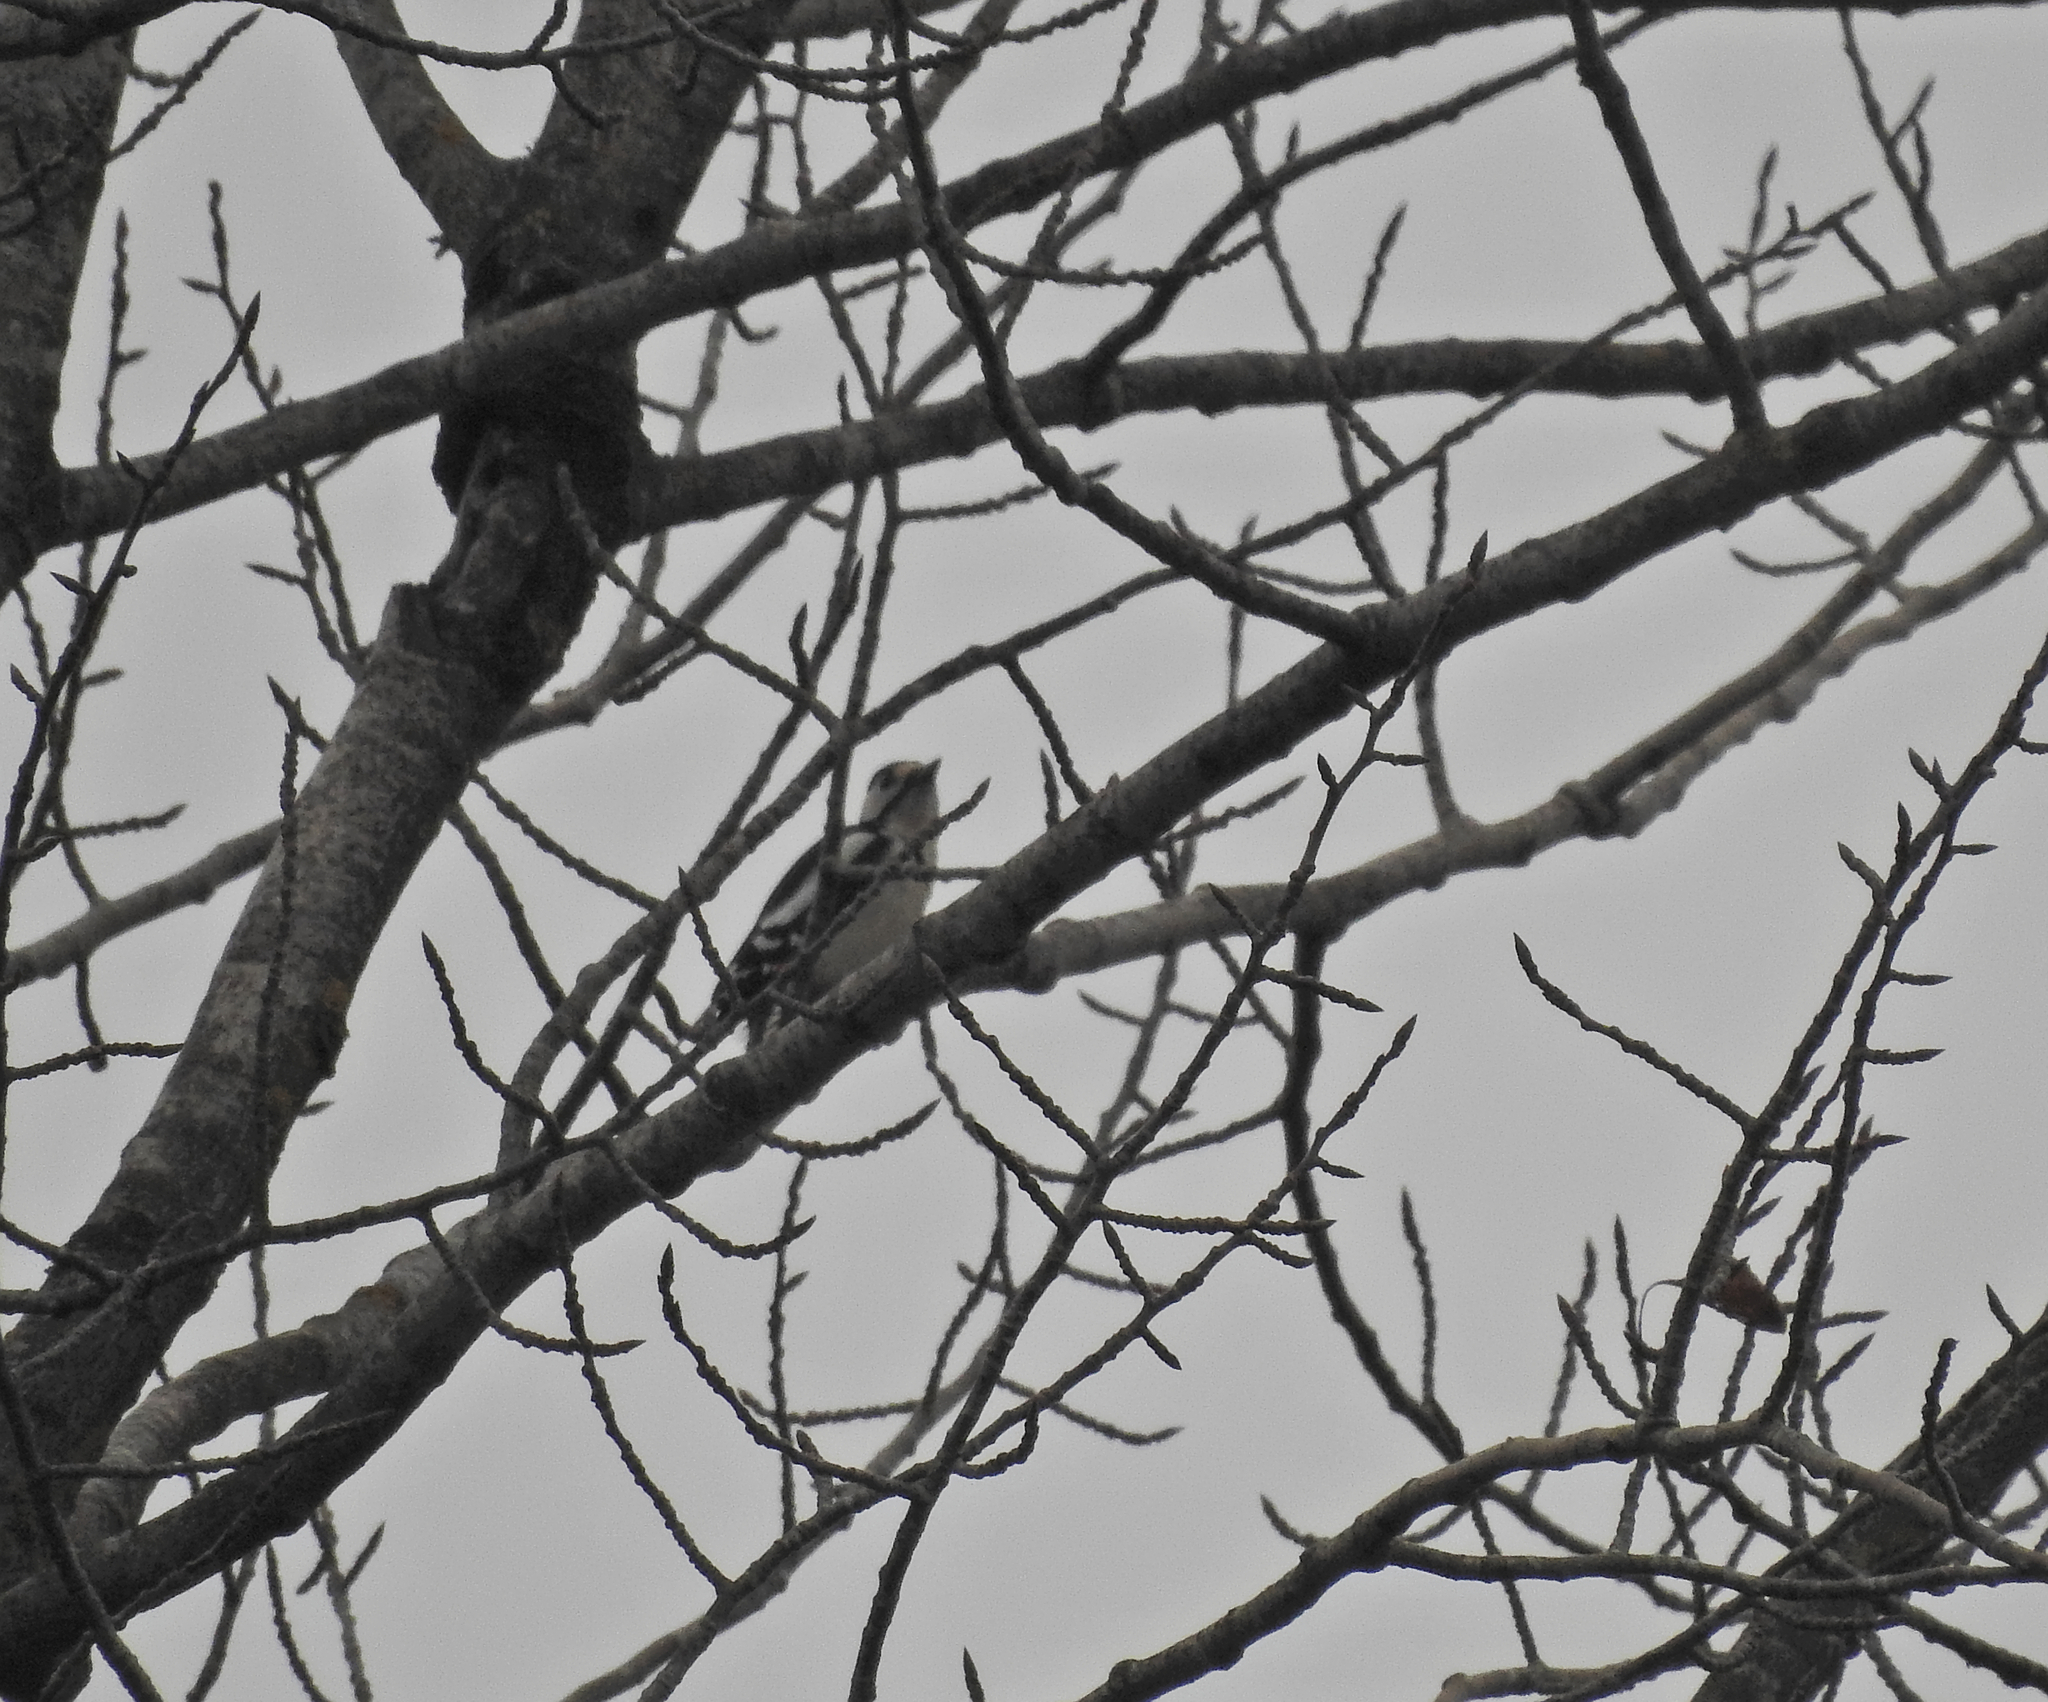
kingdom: Animalia
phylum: Chordata
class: Aves
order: Piciformes
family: Picidae
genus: Dendrocopos
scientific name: Dendrocopos major
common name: Great spotted woodpecker
